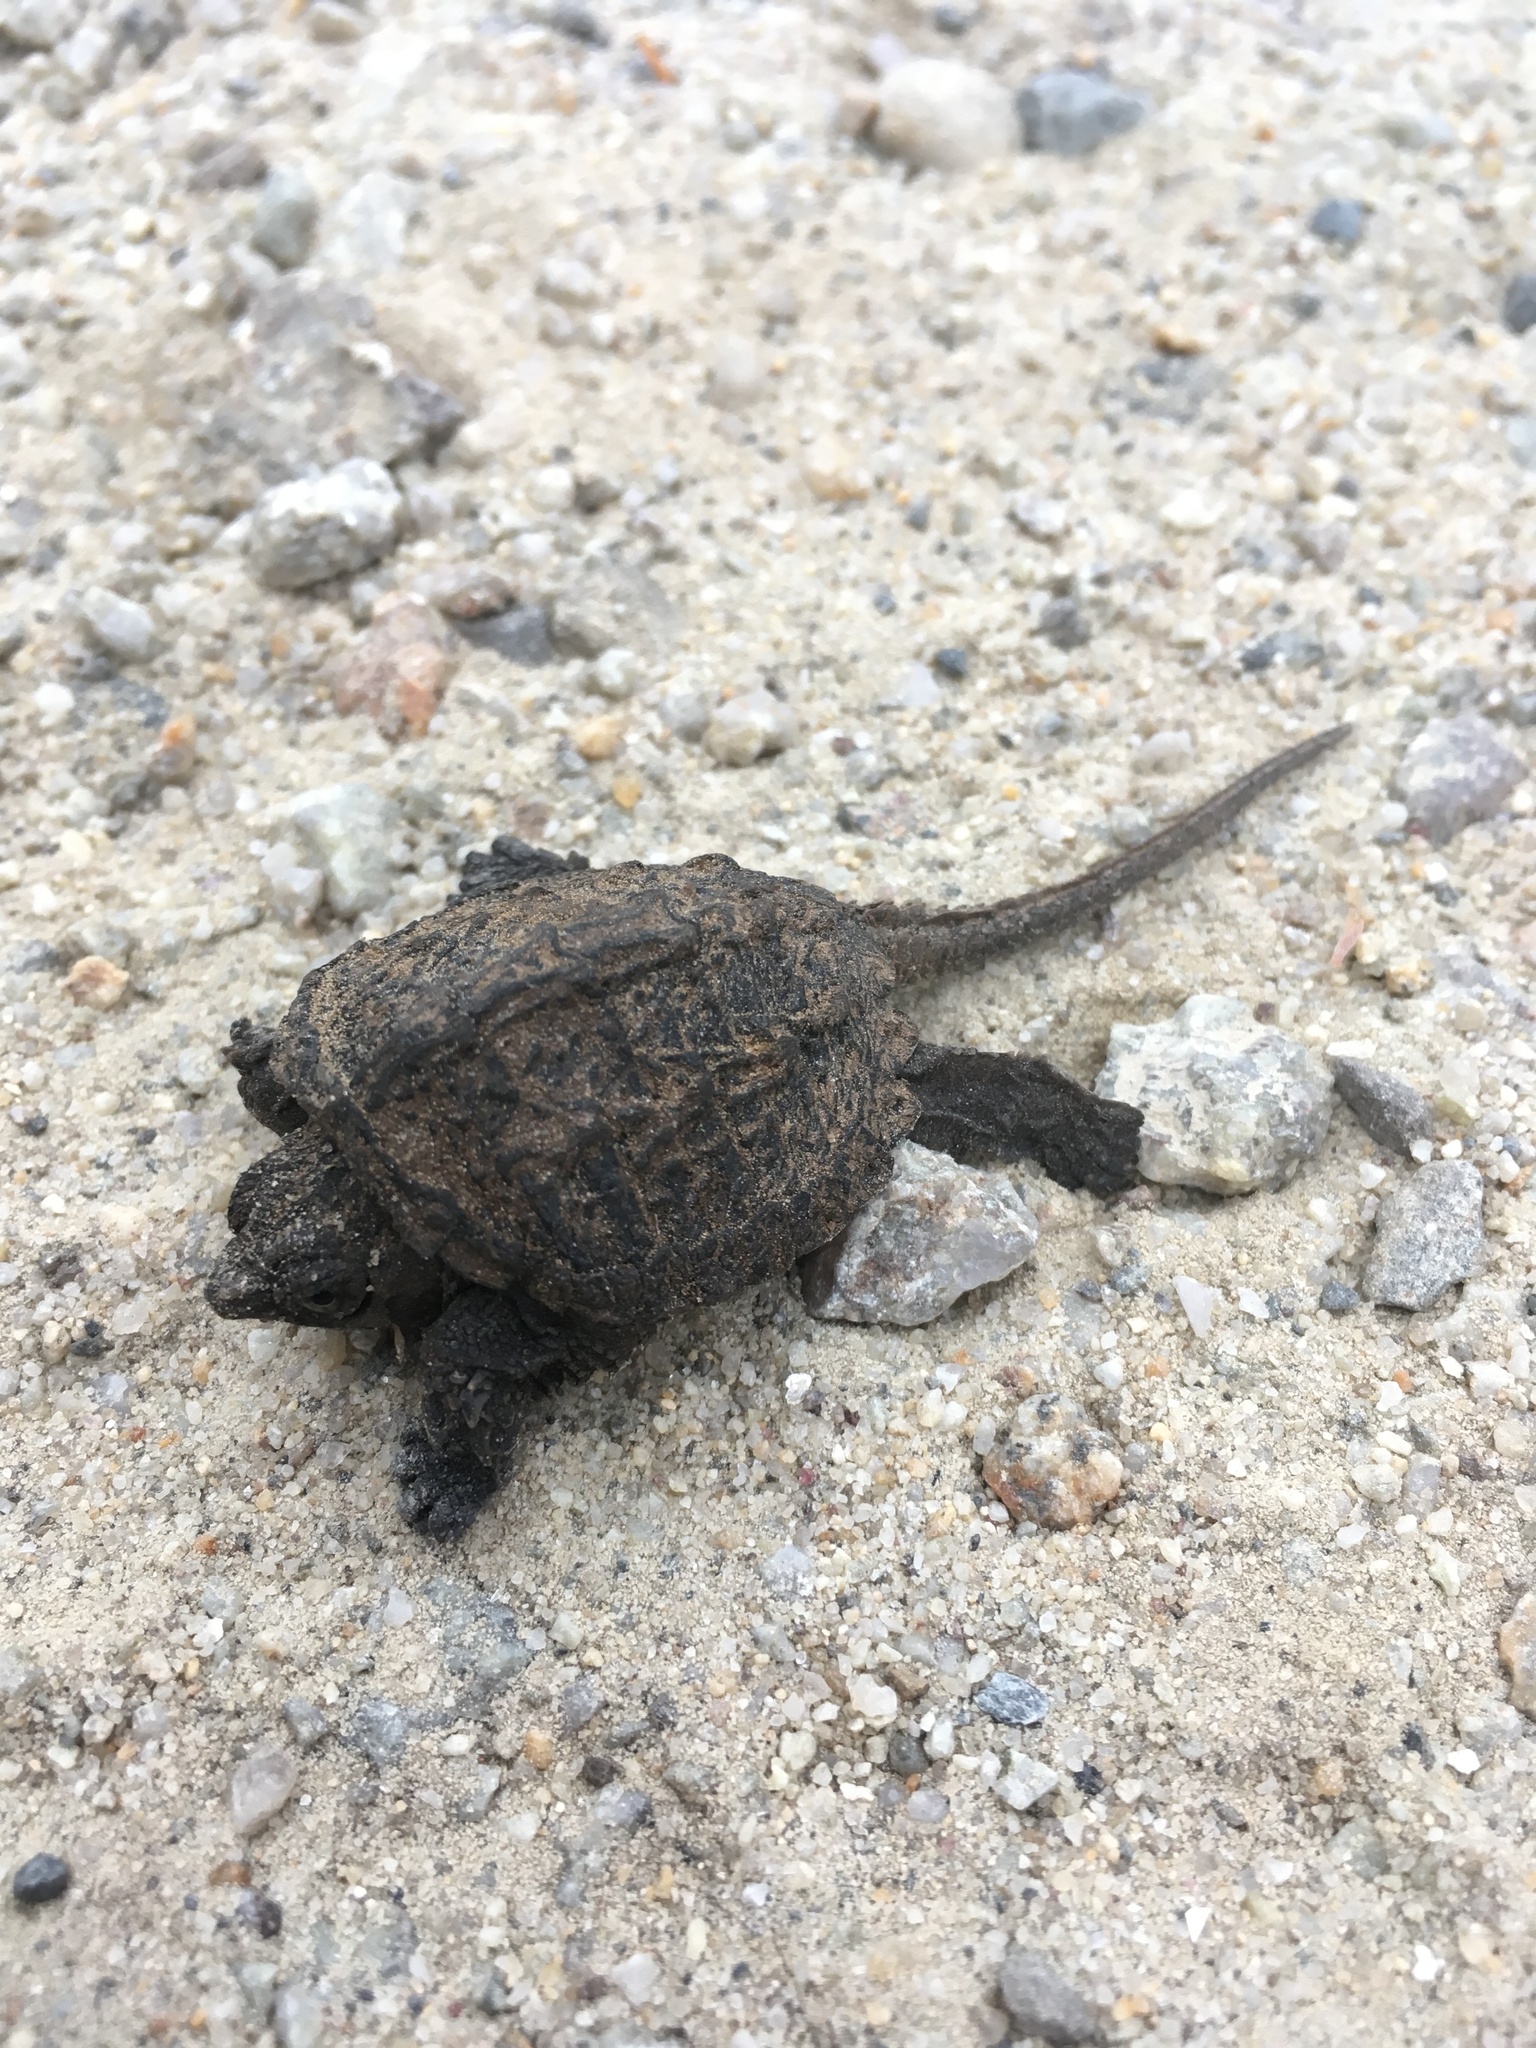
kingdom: Animalia
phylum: Chordata
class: Testudines
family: Chelydridae
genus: Chelydra
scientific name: Chelydra serpentina
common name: Common snapping turtle
